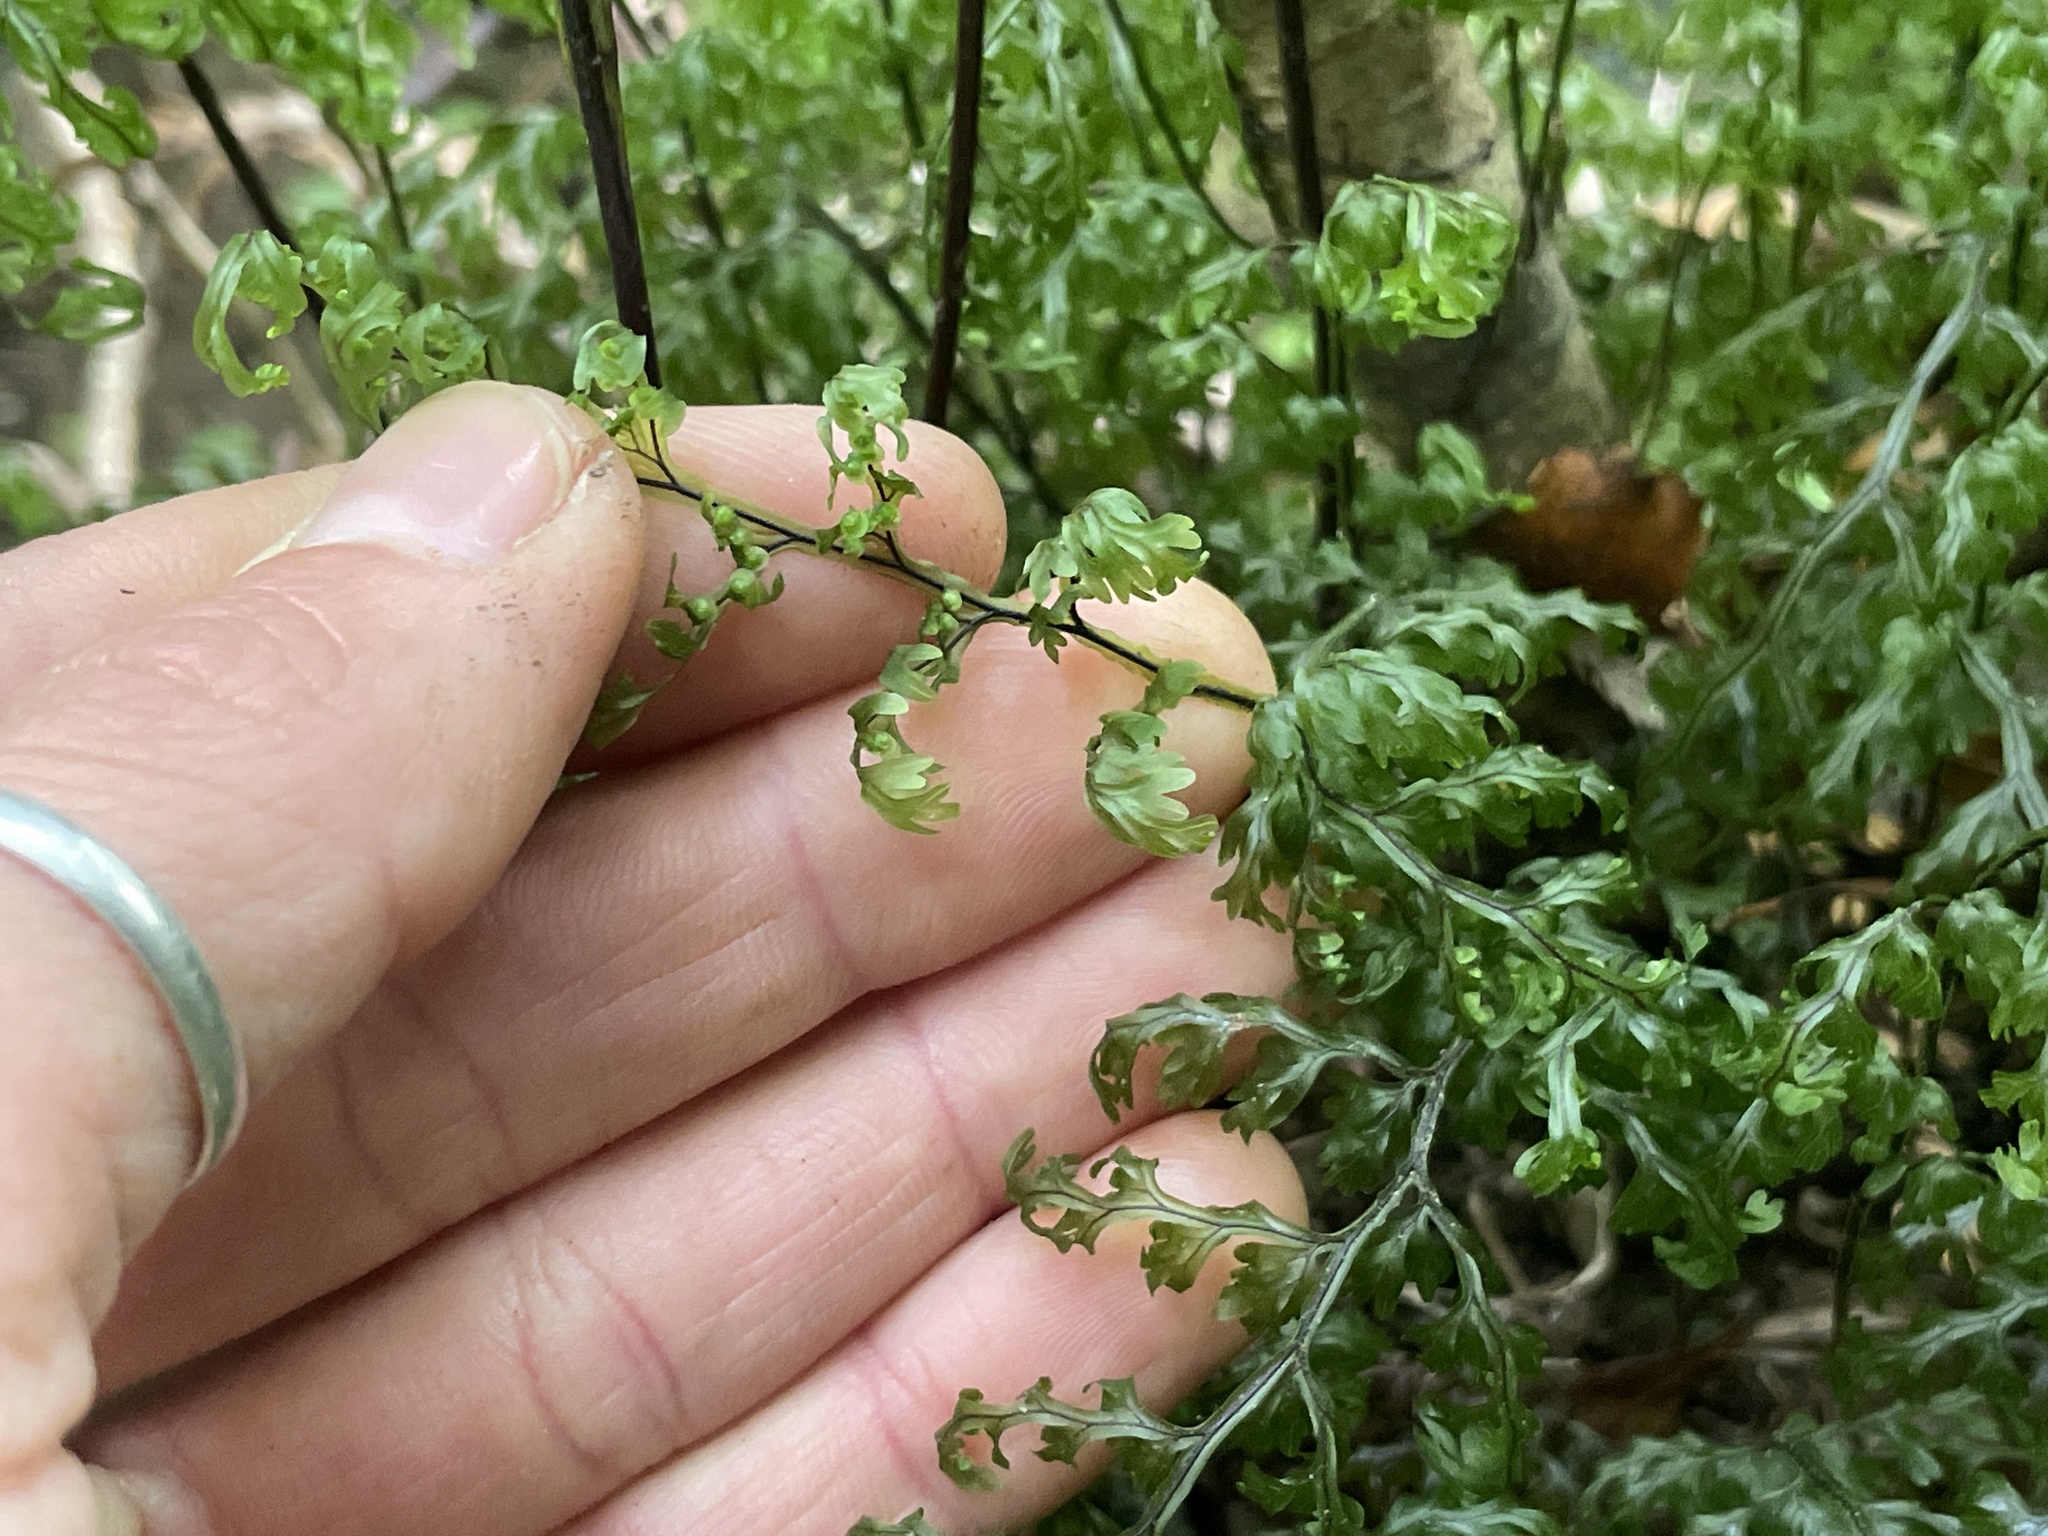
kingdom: Plantae
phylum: Tracheophyta
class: Polypodiopsida
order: Hymenophyllales
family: Hymenophyllaceae
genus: Hymenophyllum
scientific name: Hymenophyllum sanguinolentum
